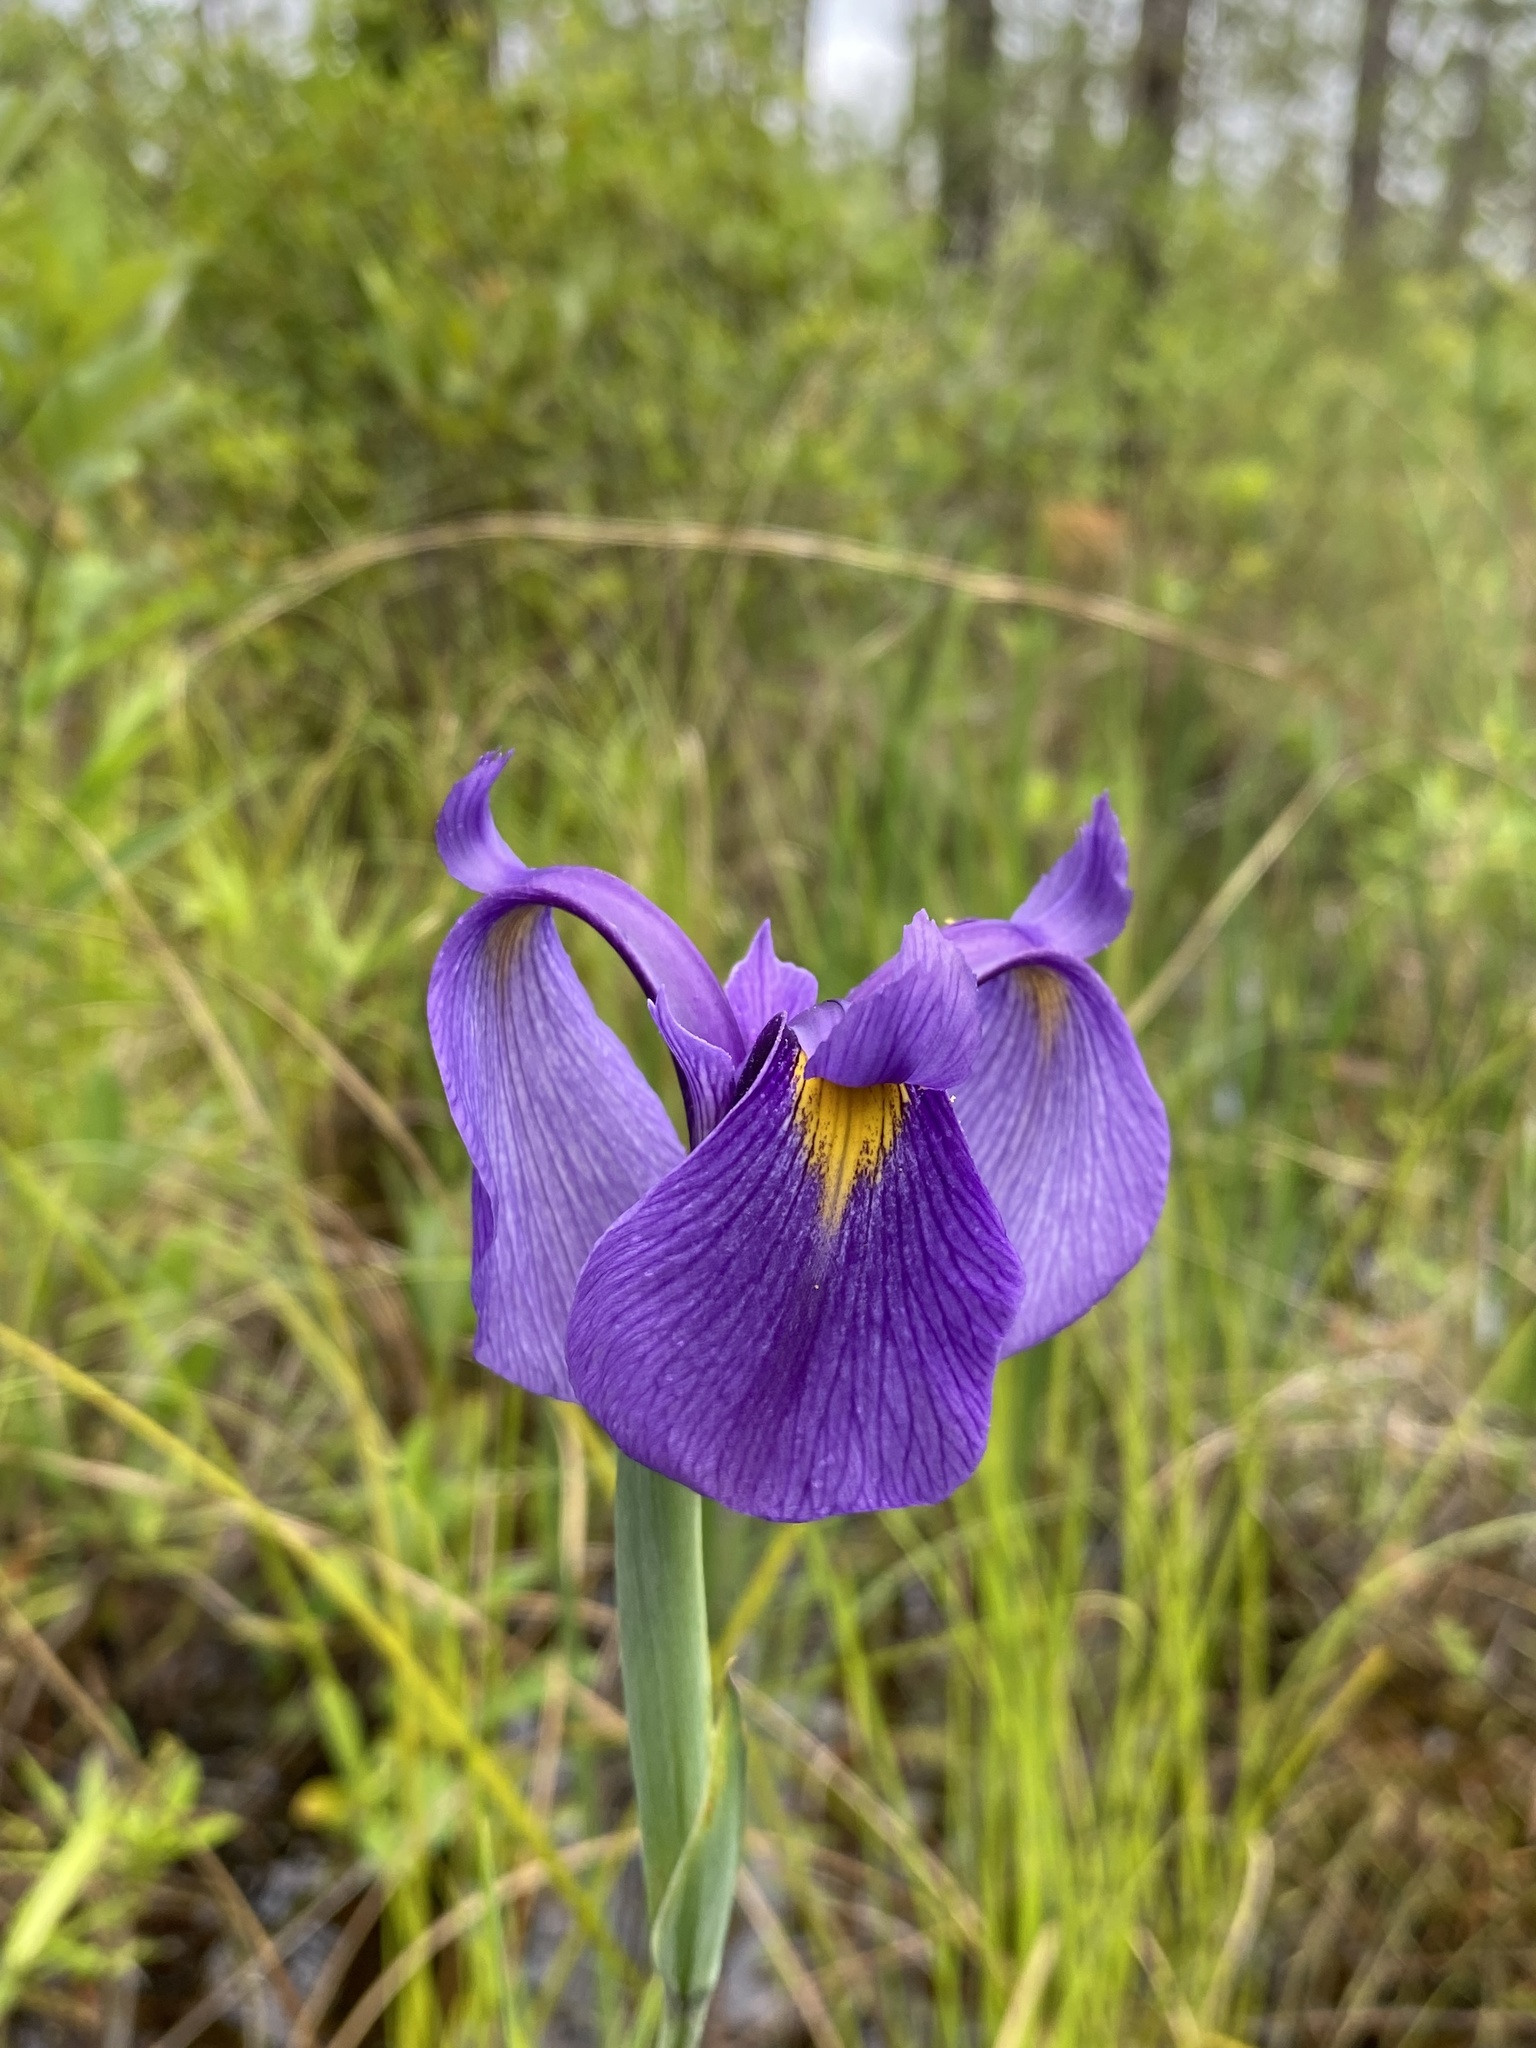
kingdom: Plantae
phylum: Tracheophyta
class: Liliopsida
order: Asparagales
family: Iridaceae
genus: Iris
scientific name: Iris tridentata
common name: Savannah iris
